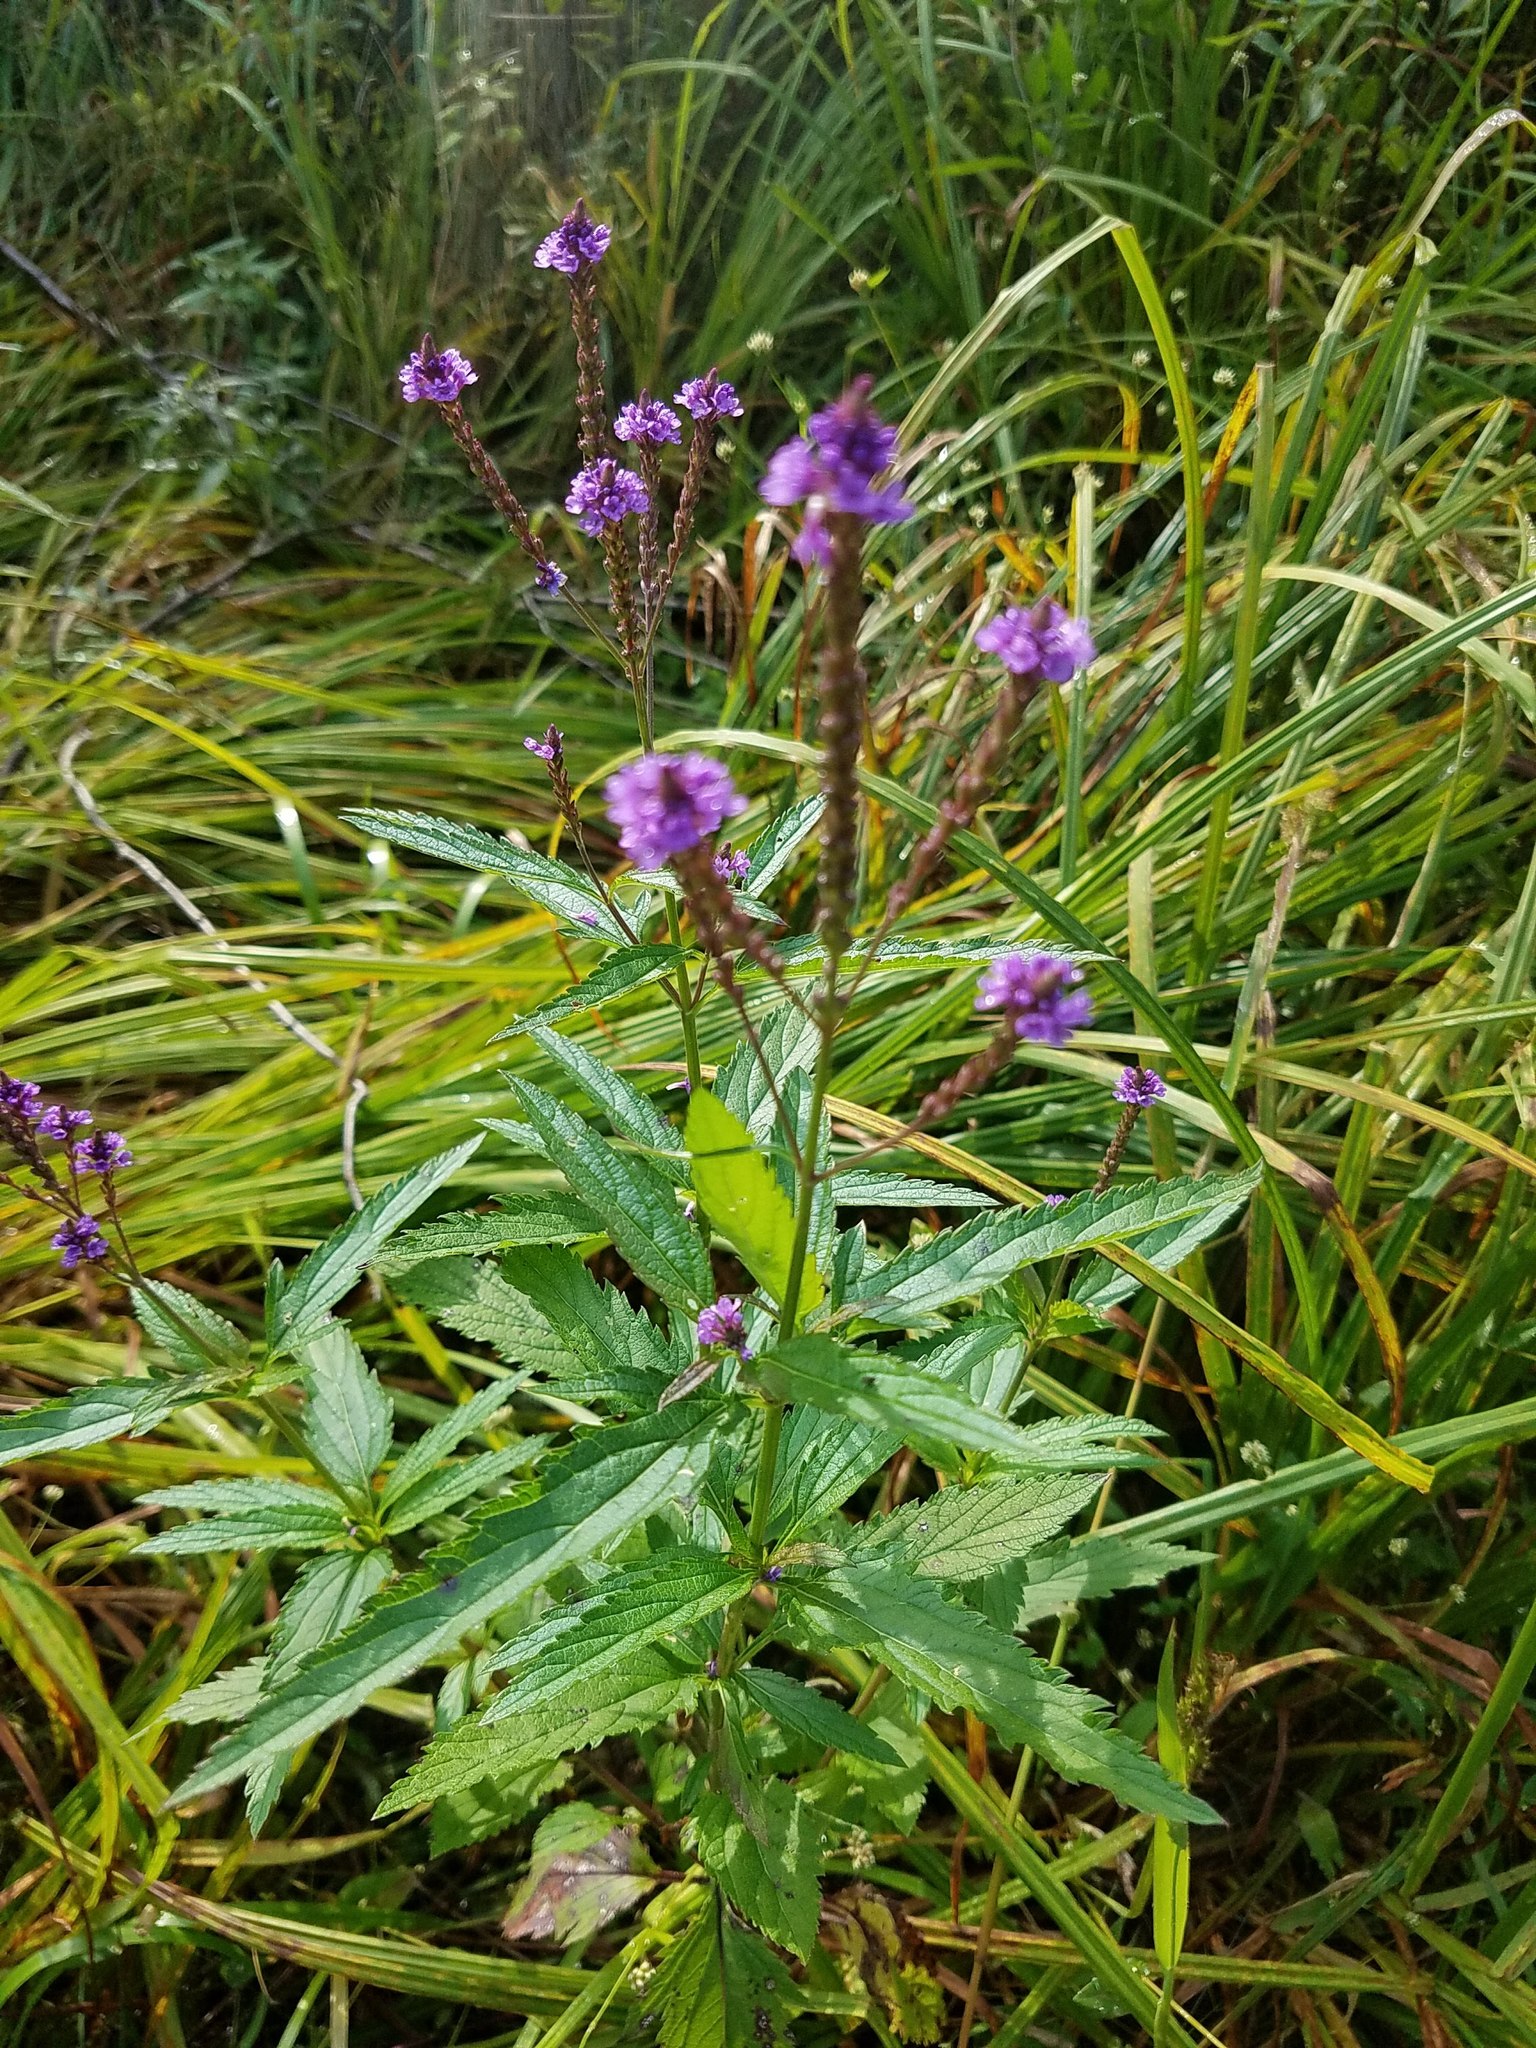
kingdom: Plantae
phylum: Tracheophyta
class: Magnoliopsida
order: Lamiales
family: Verbenaceae
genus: Verbena
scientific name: Verbena hastata
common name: American blue vervain
